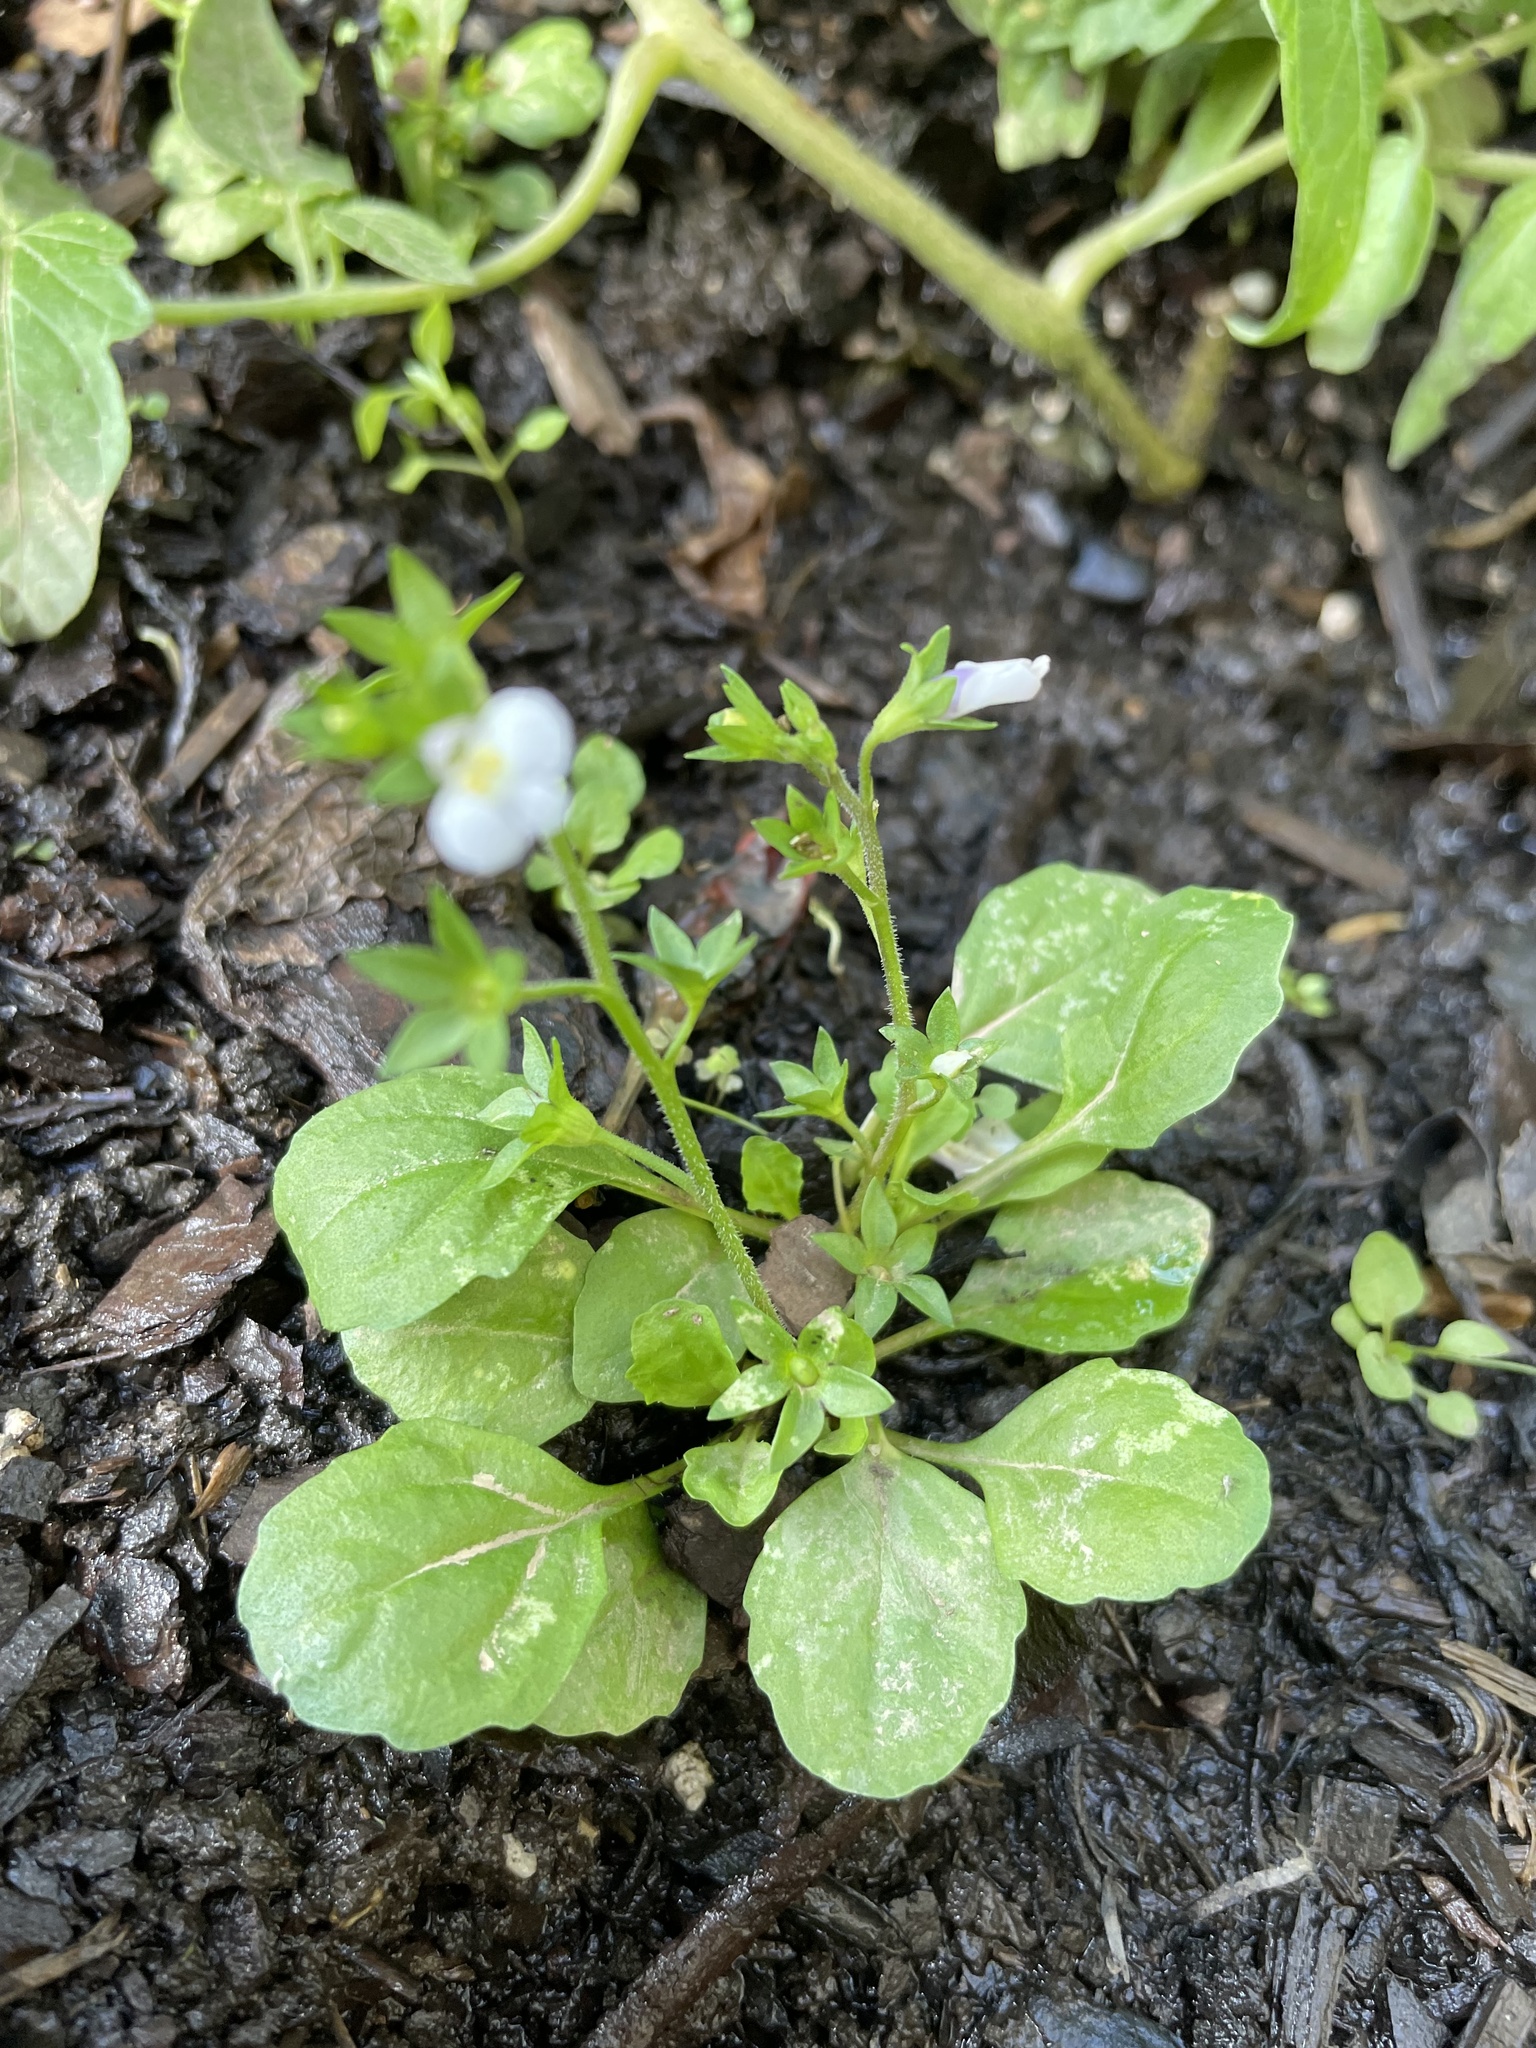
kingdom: Plantae
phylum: Tracheophyta
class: Magnoliopsida
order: Lamiales
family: Mazaceae
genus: Mazus
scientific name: Mazus pumilus
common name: Japanese mazus
